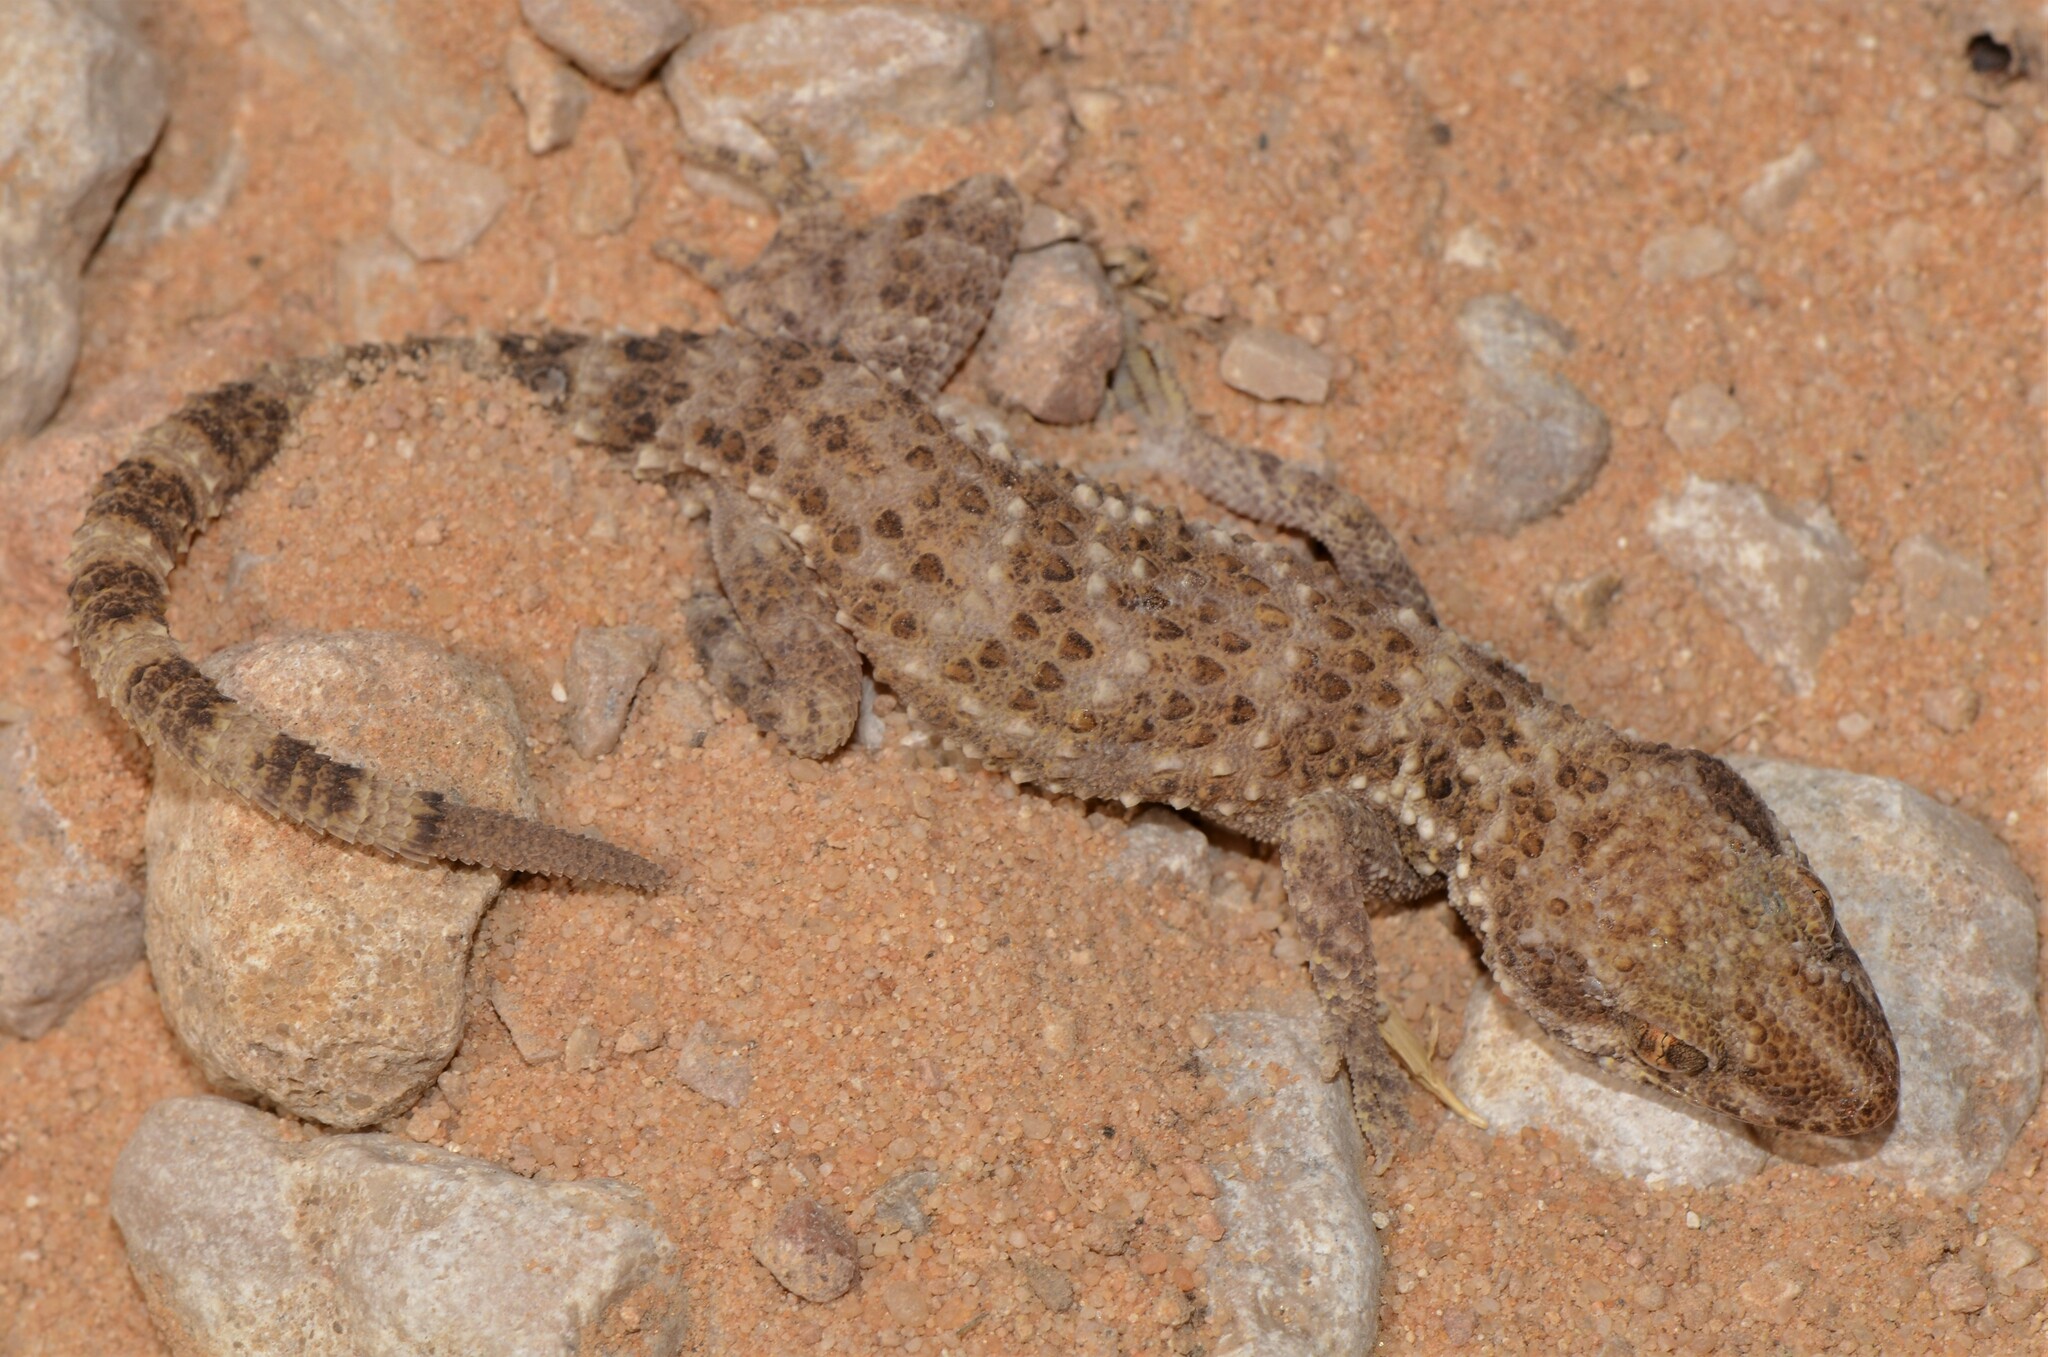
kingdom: Animalia
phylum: Chordata
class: Squamata
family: Gekkonidae
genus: Bunopus
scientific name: Bunopus tuberculatus
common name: Southern tuberculated gecko
